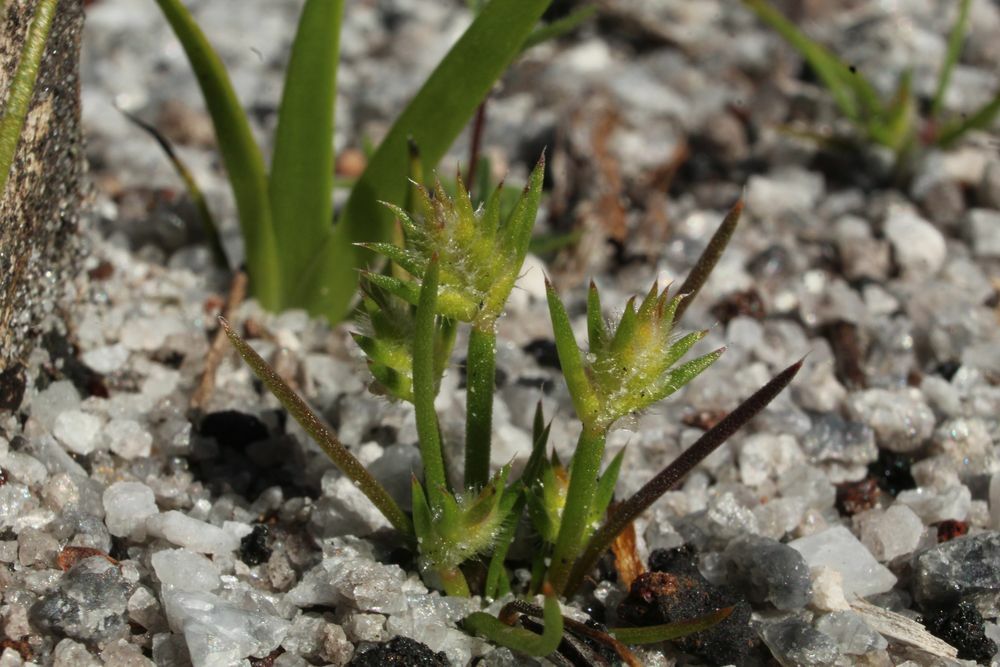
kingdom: Plantae
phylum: Tracheophyta
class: Liliopsida
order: Poales
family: Restionaceae
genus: Aphelia
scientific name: Aphelia cyperoides
